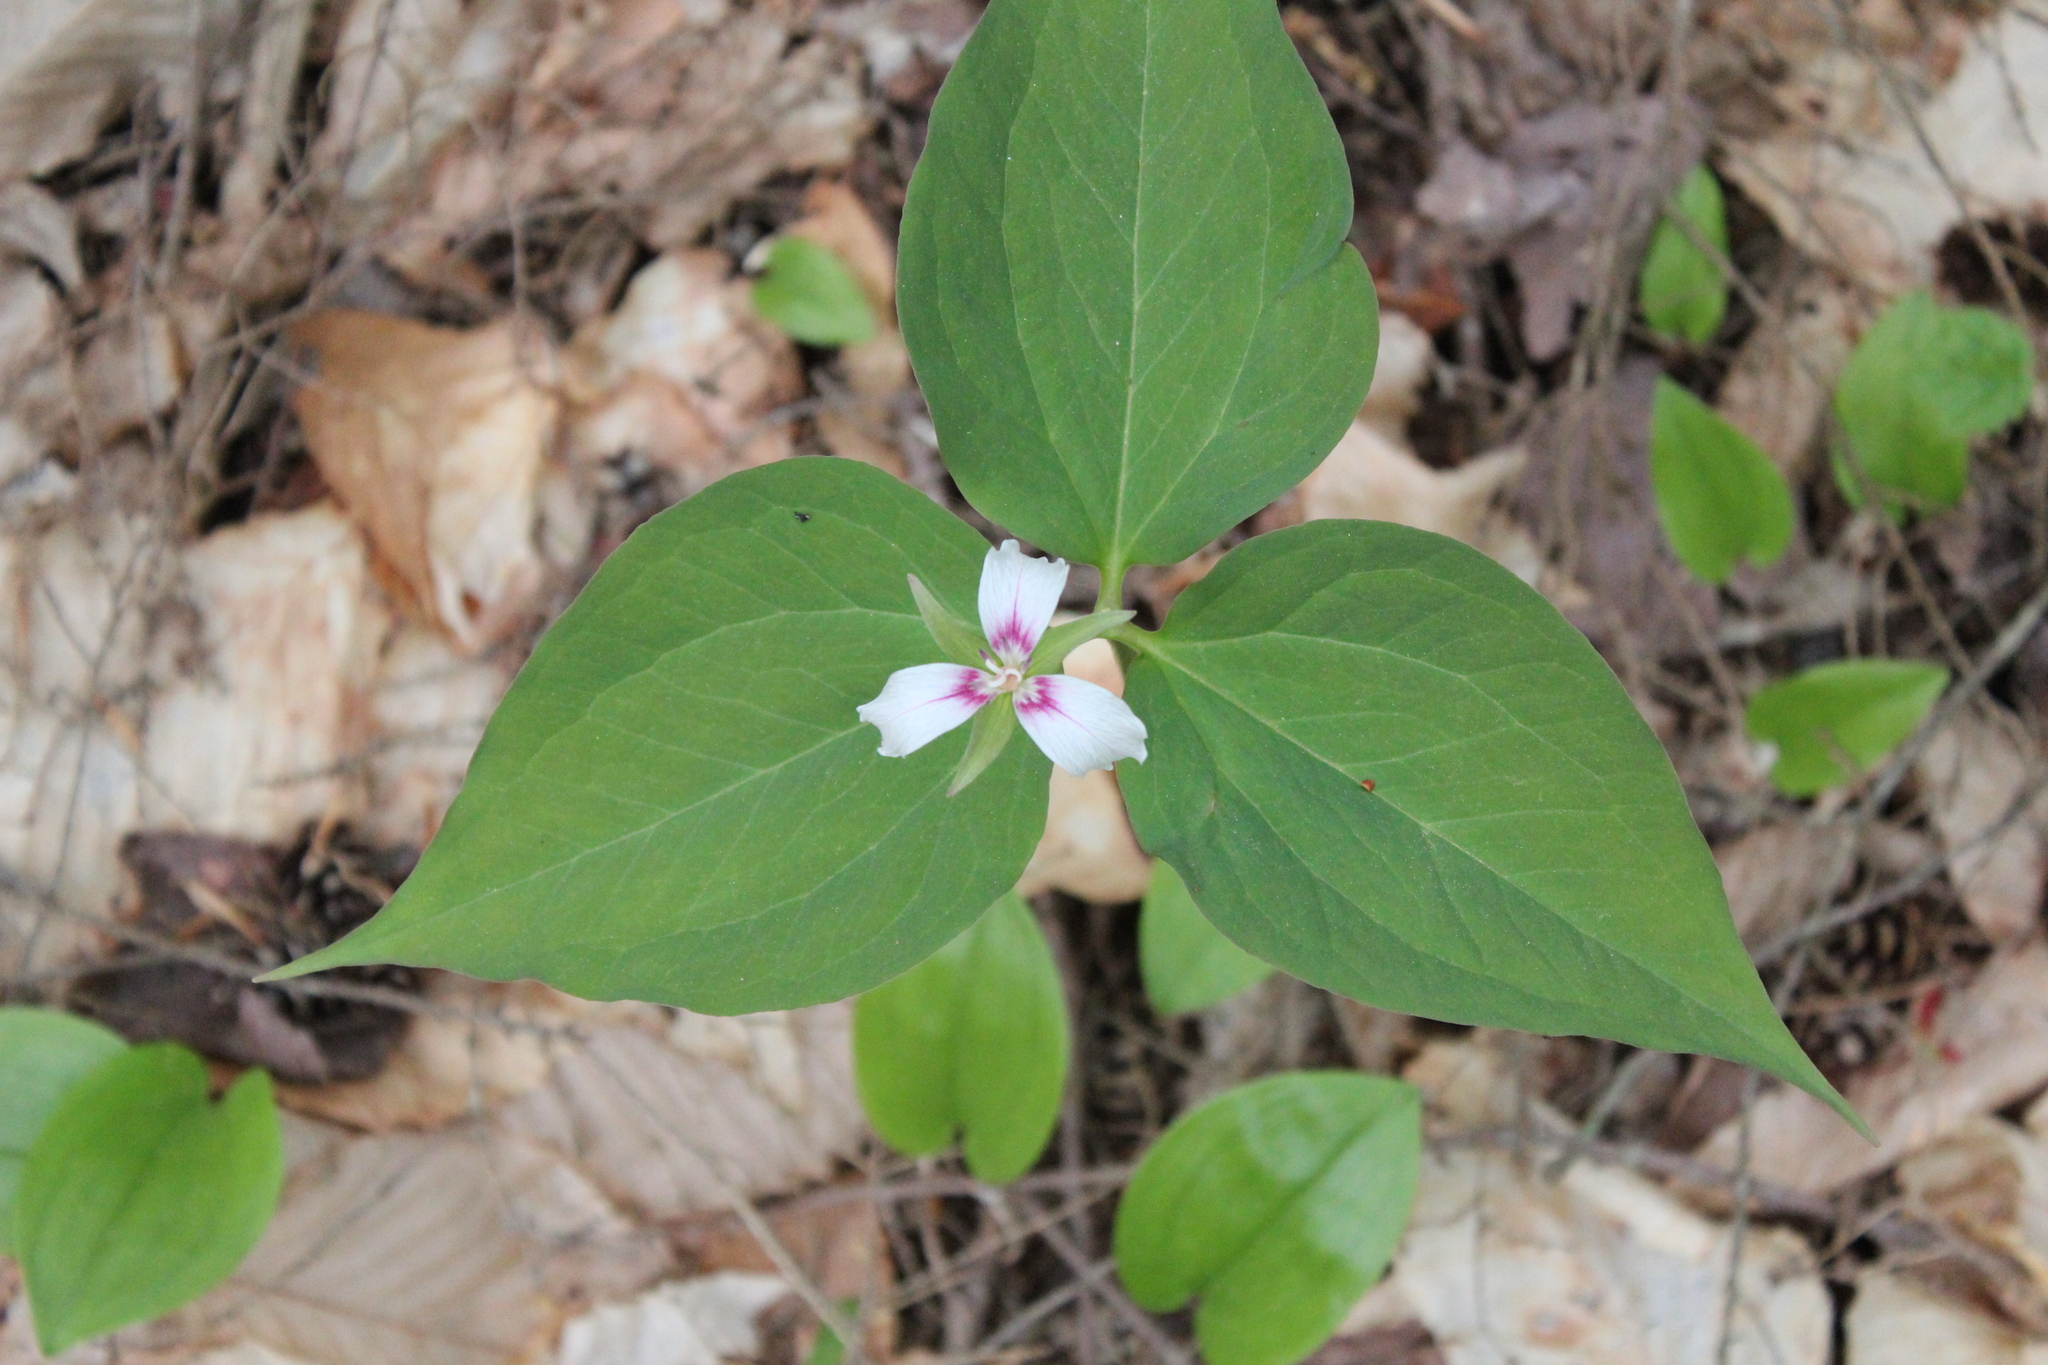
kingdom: Plantae
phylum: Tracheophyta
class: Liliopsida
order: Liliales
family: Melanthiaceae
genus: Trillium
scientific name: Trillium undulatum
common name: Paint trillium
